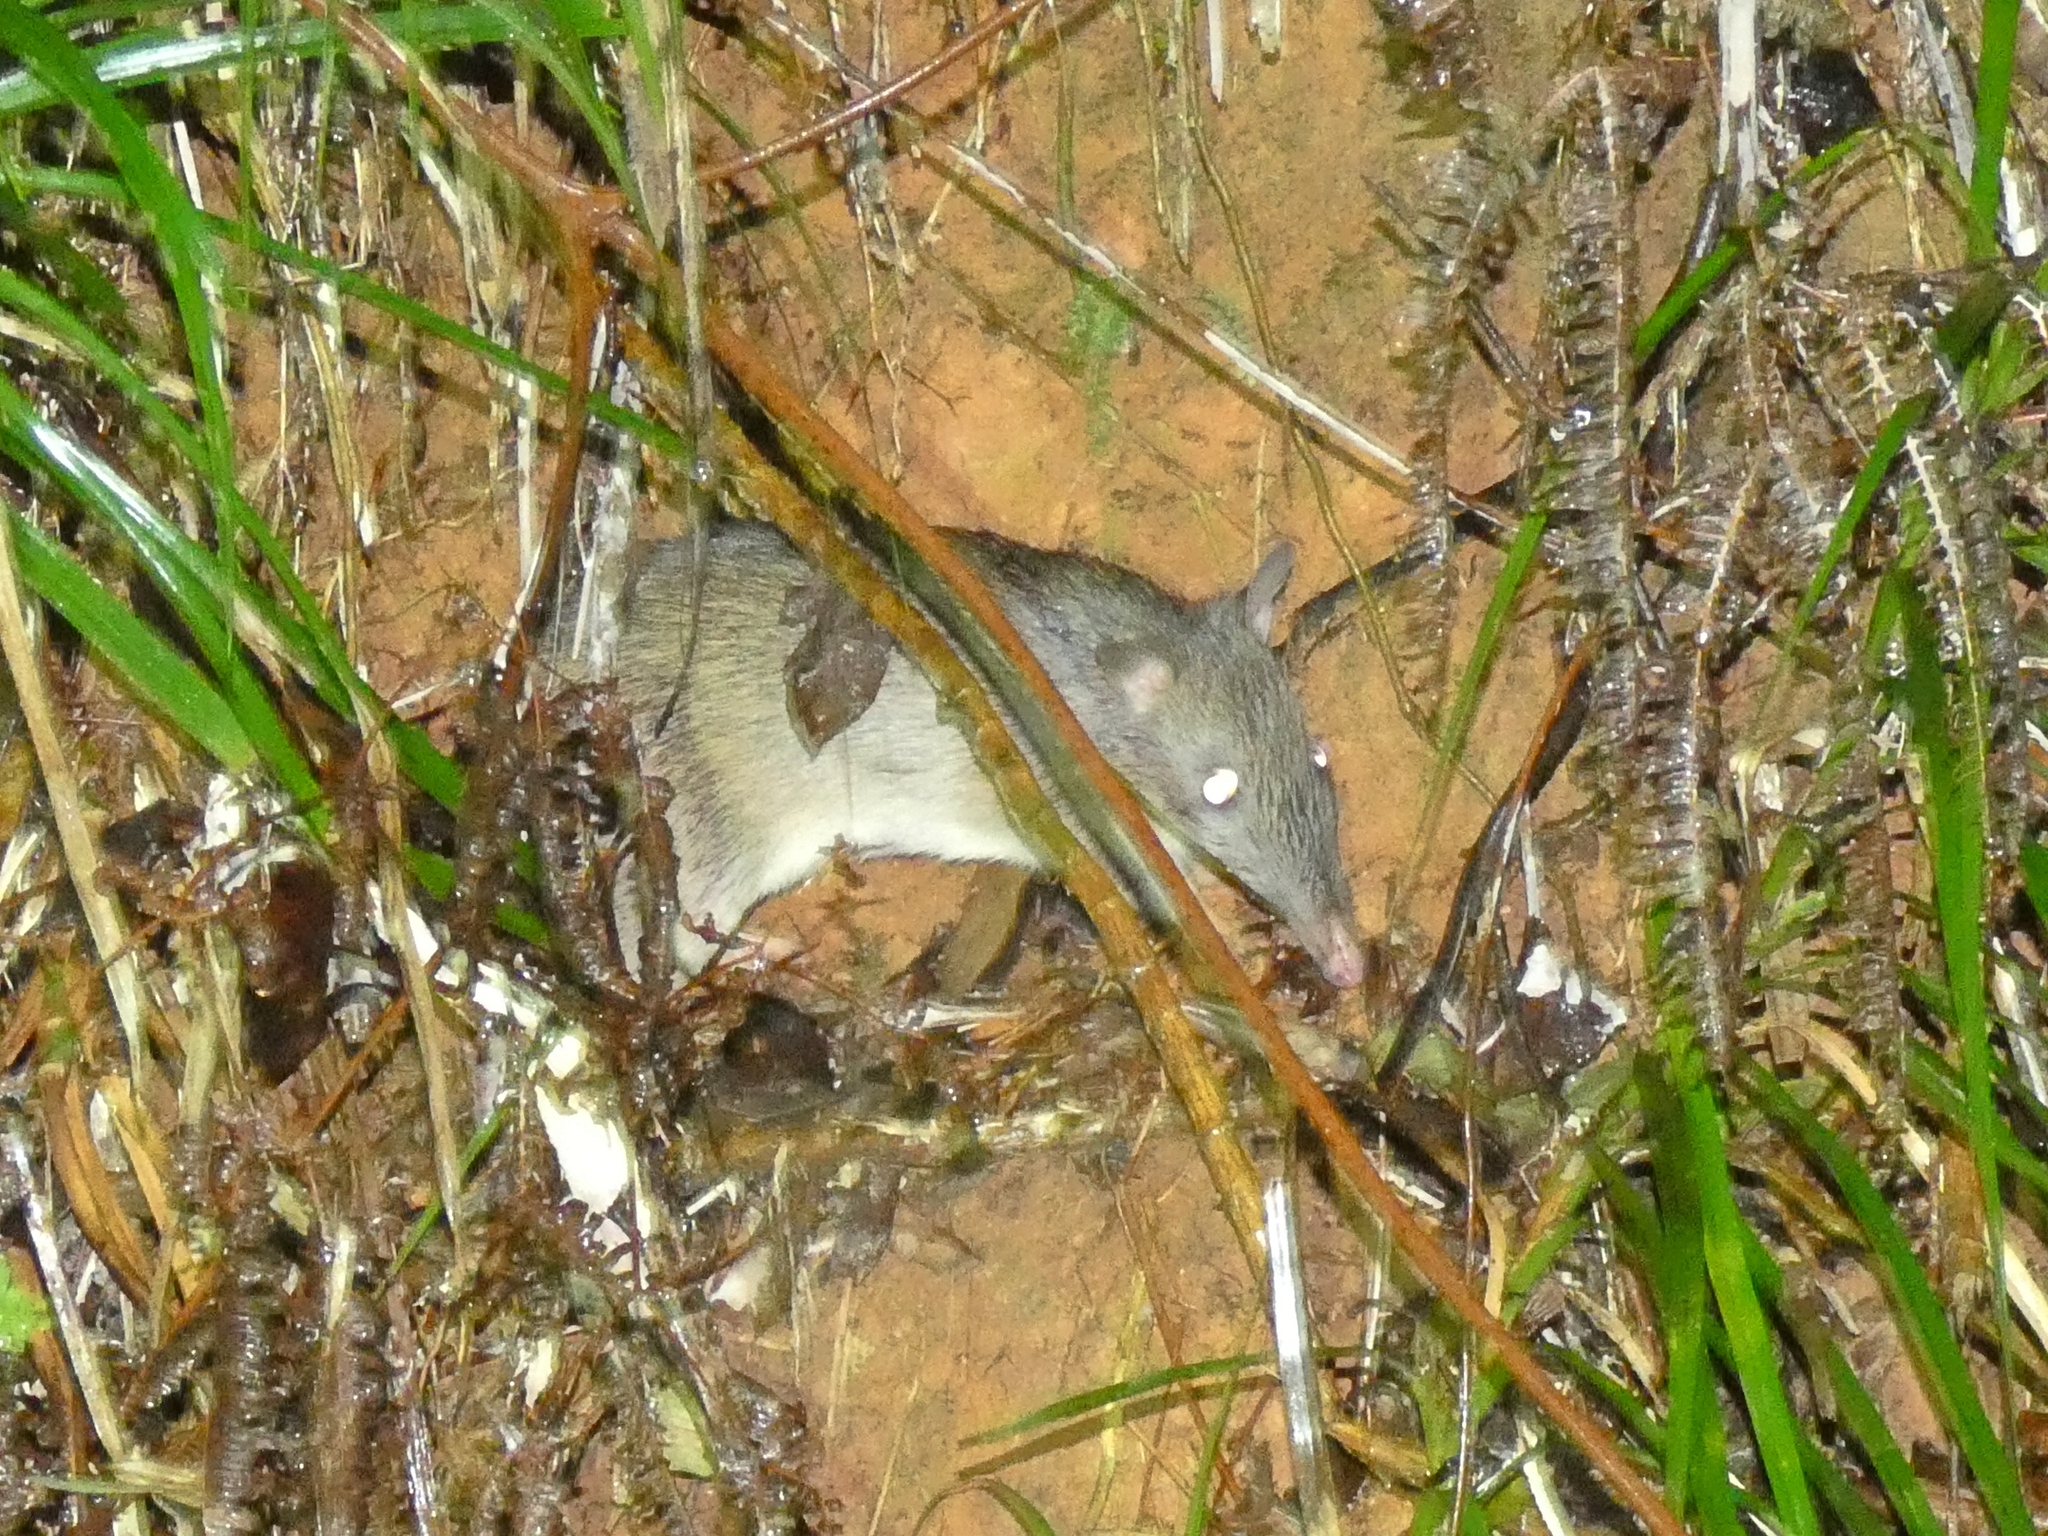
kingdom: Animalia
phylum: Chordata
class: Mammalia
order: Peramelemorphia
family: Peramelidae
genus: Perameles
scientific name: Perameles pallescens
